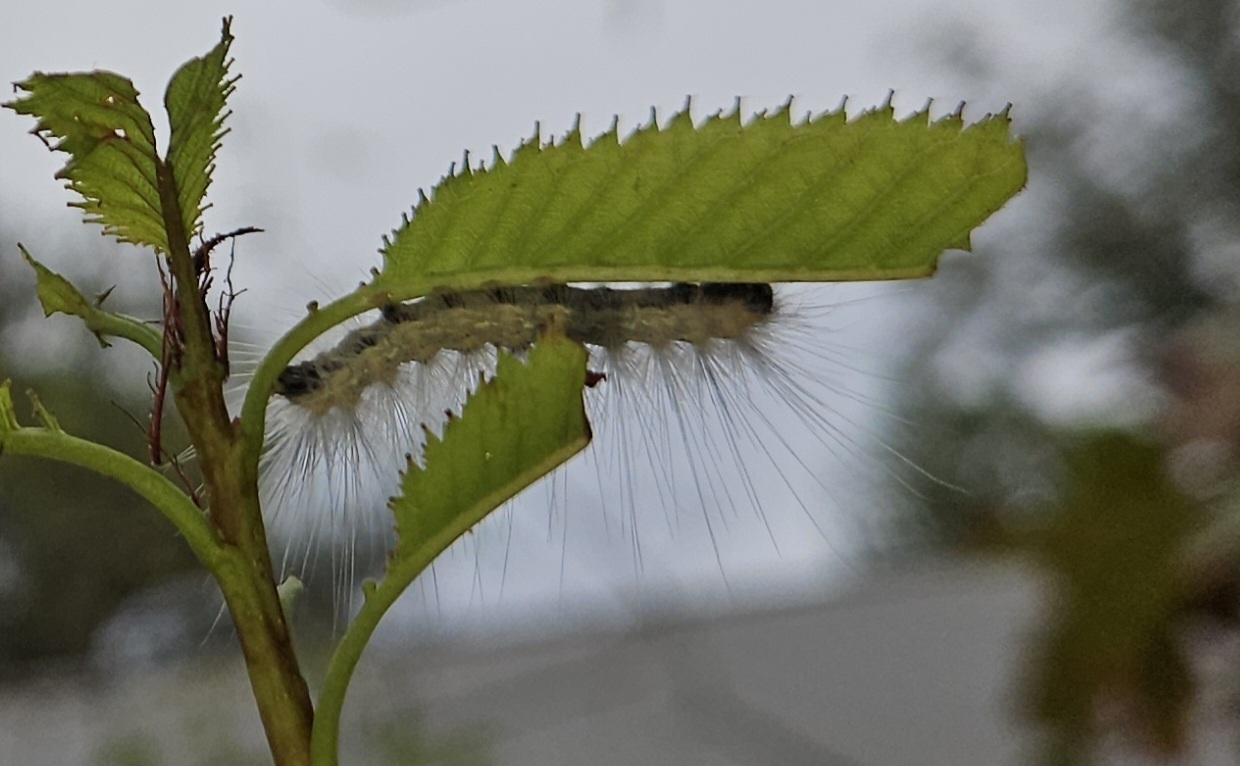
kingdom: Animalia
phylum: Arthropoda
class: Insecta
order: Lepidoptera
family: Erebidae
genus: Hyphantria
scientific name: Hyphantria cunea
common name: American white moth
